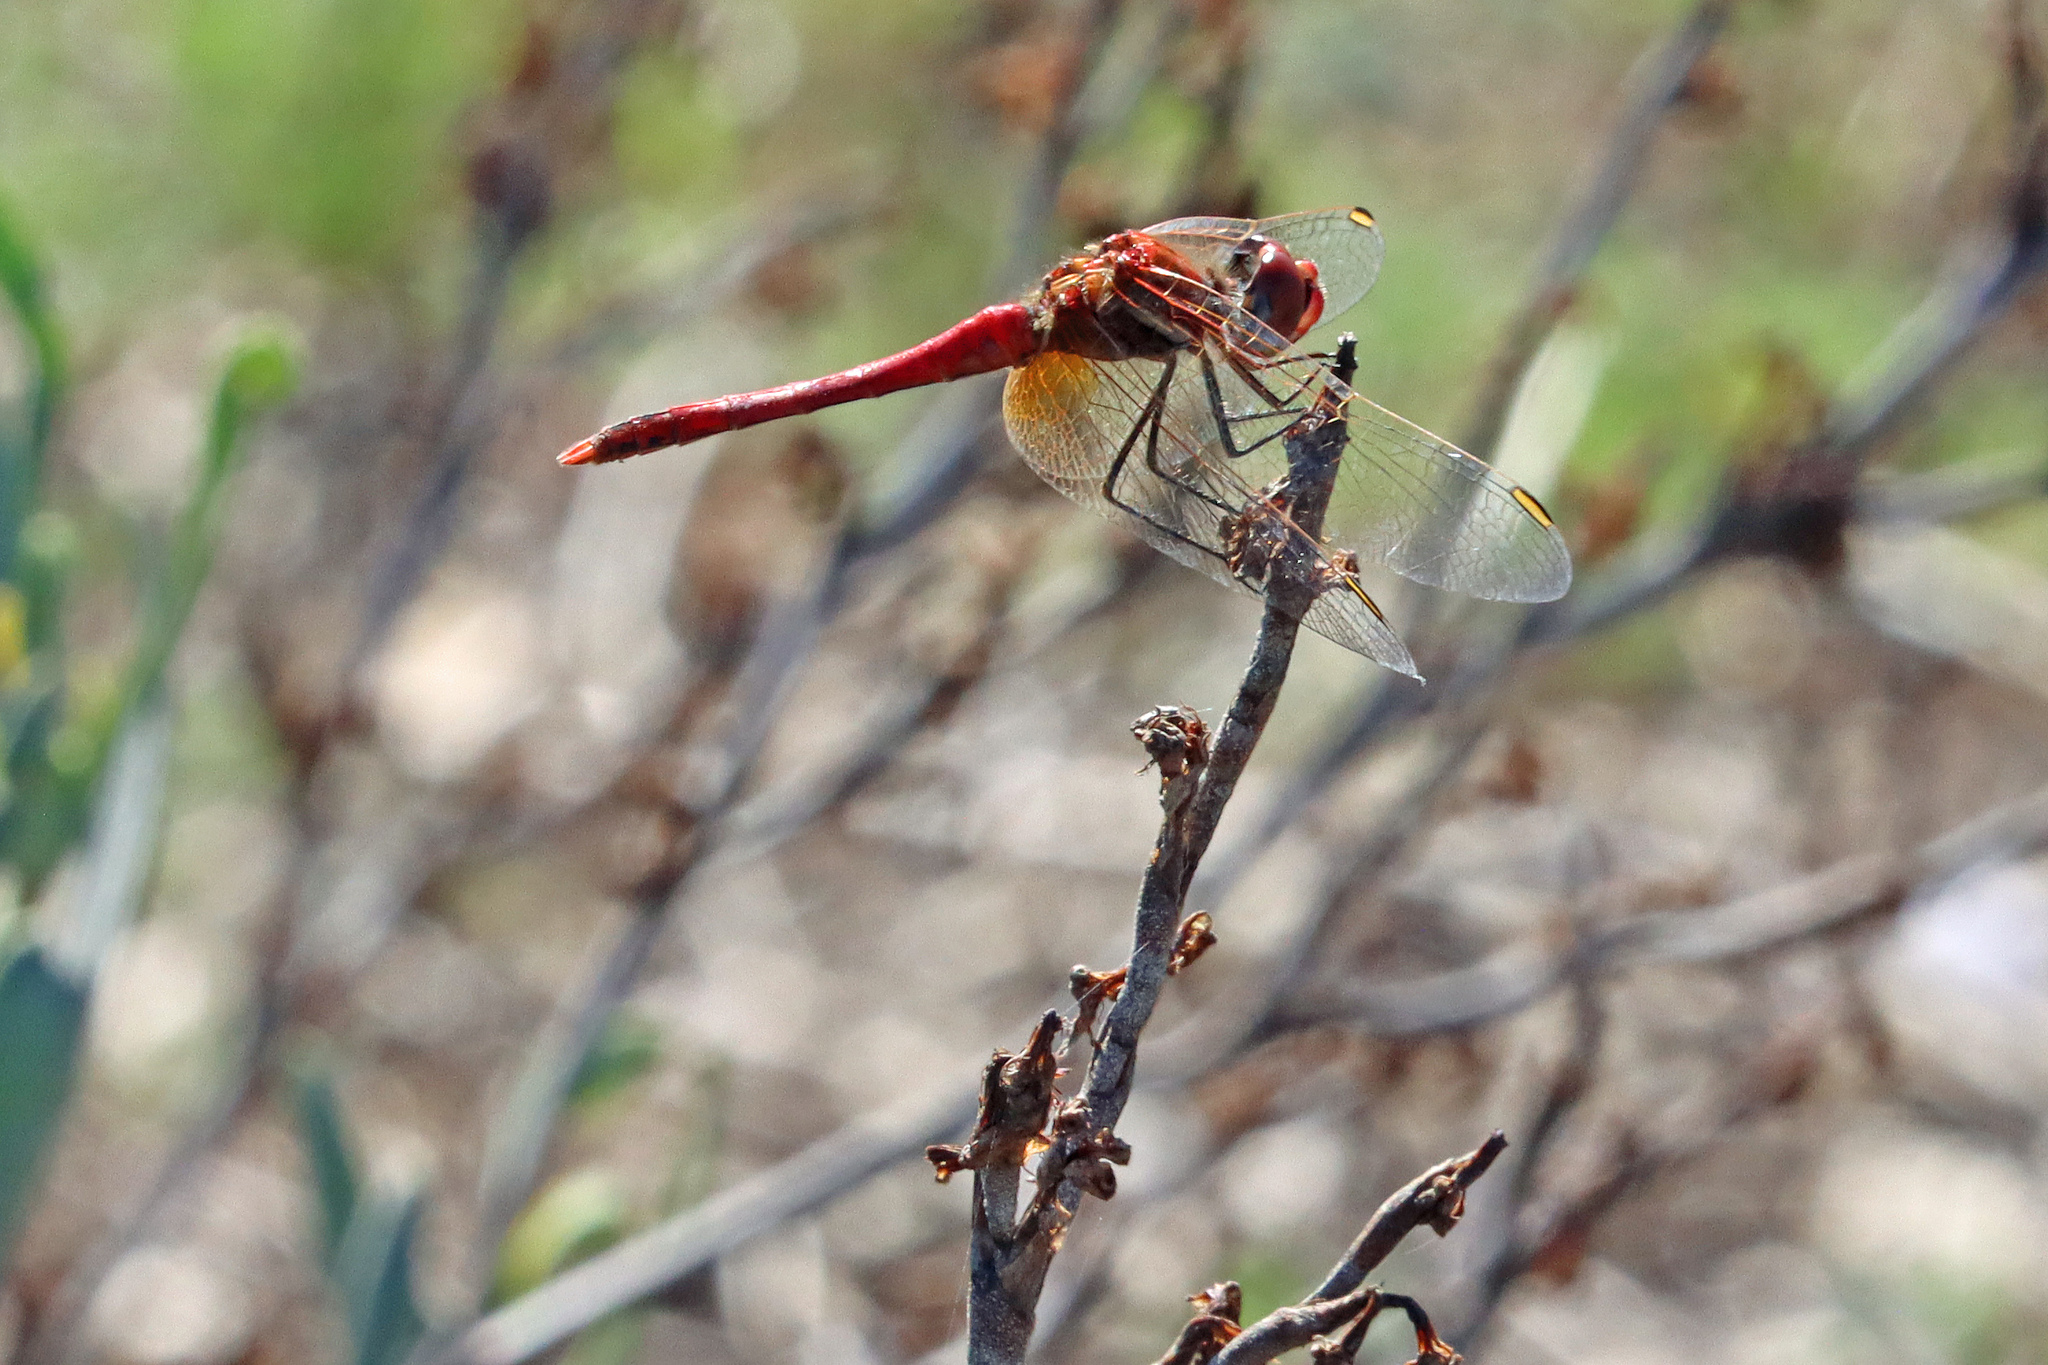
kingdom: Animalia
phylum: Arthropoda
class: Insecta
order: Odonata
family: Libellulidae
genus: Sympetrum
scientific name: Sympetrum fonscolombii
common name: Red-veined darter
